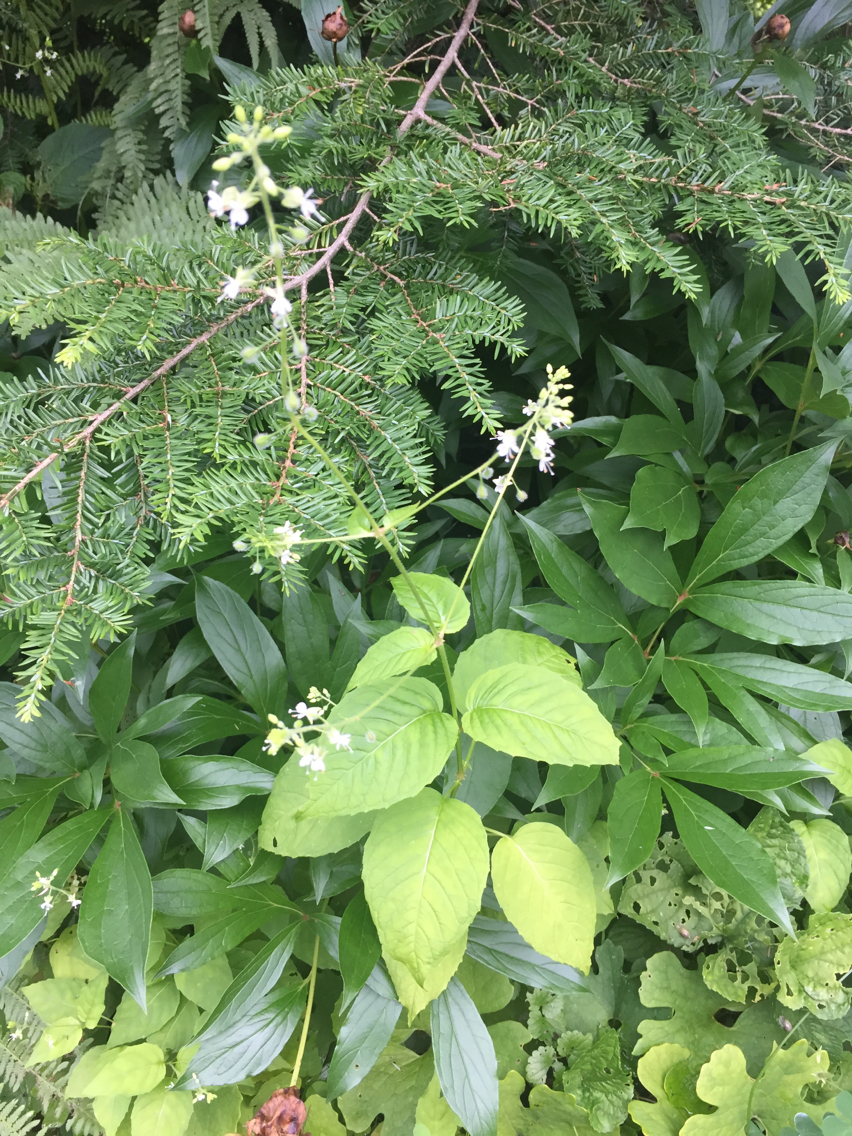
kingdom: Plantae
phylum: Tracheophyta
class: Magnoliopsida
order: Lamiales
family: Phrymaceae
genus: Phryma
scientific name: Phryma leptostachya
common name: American lopseed
